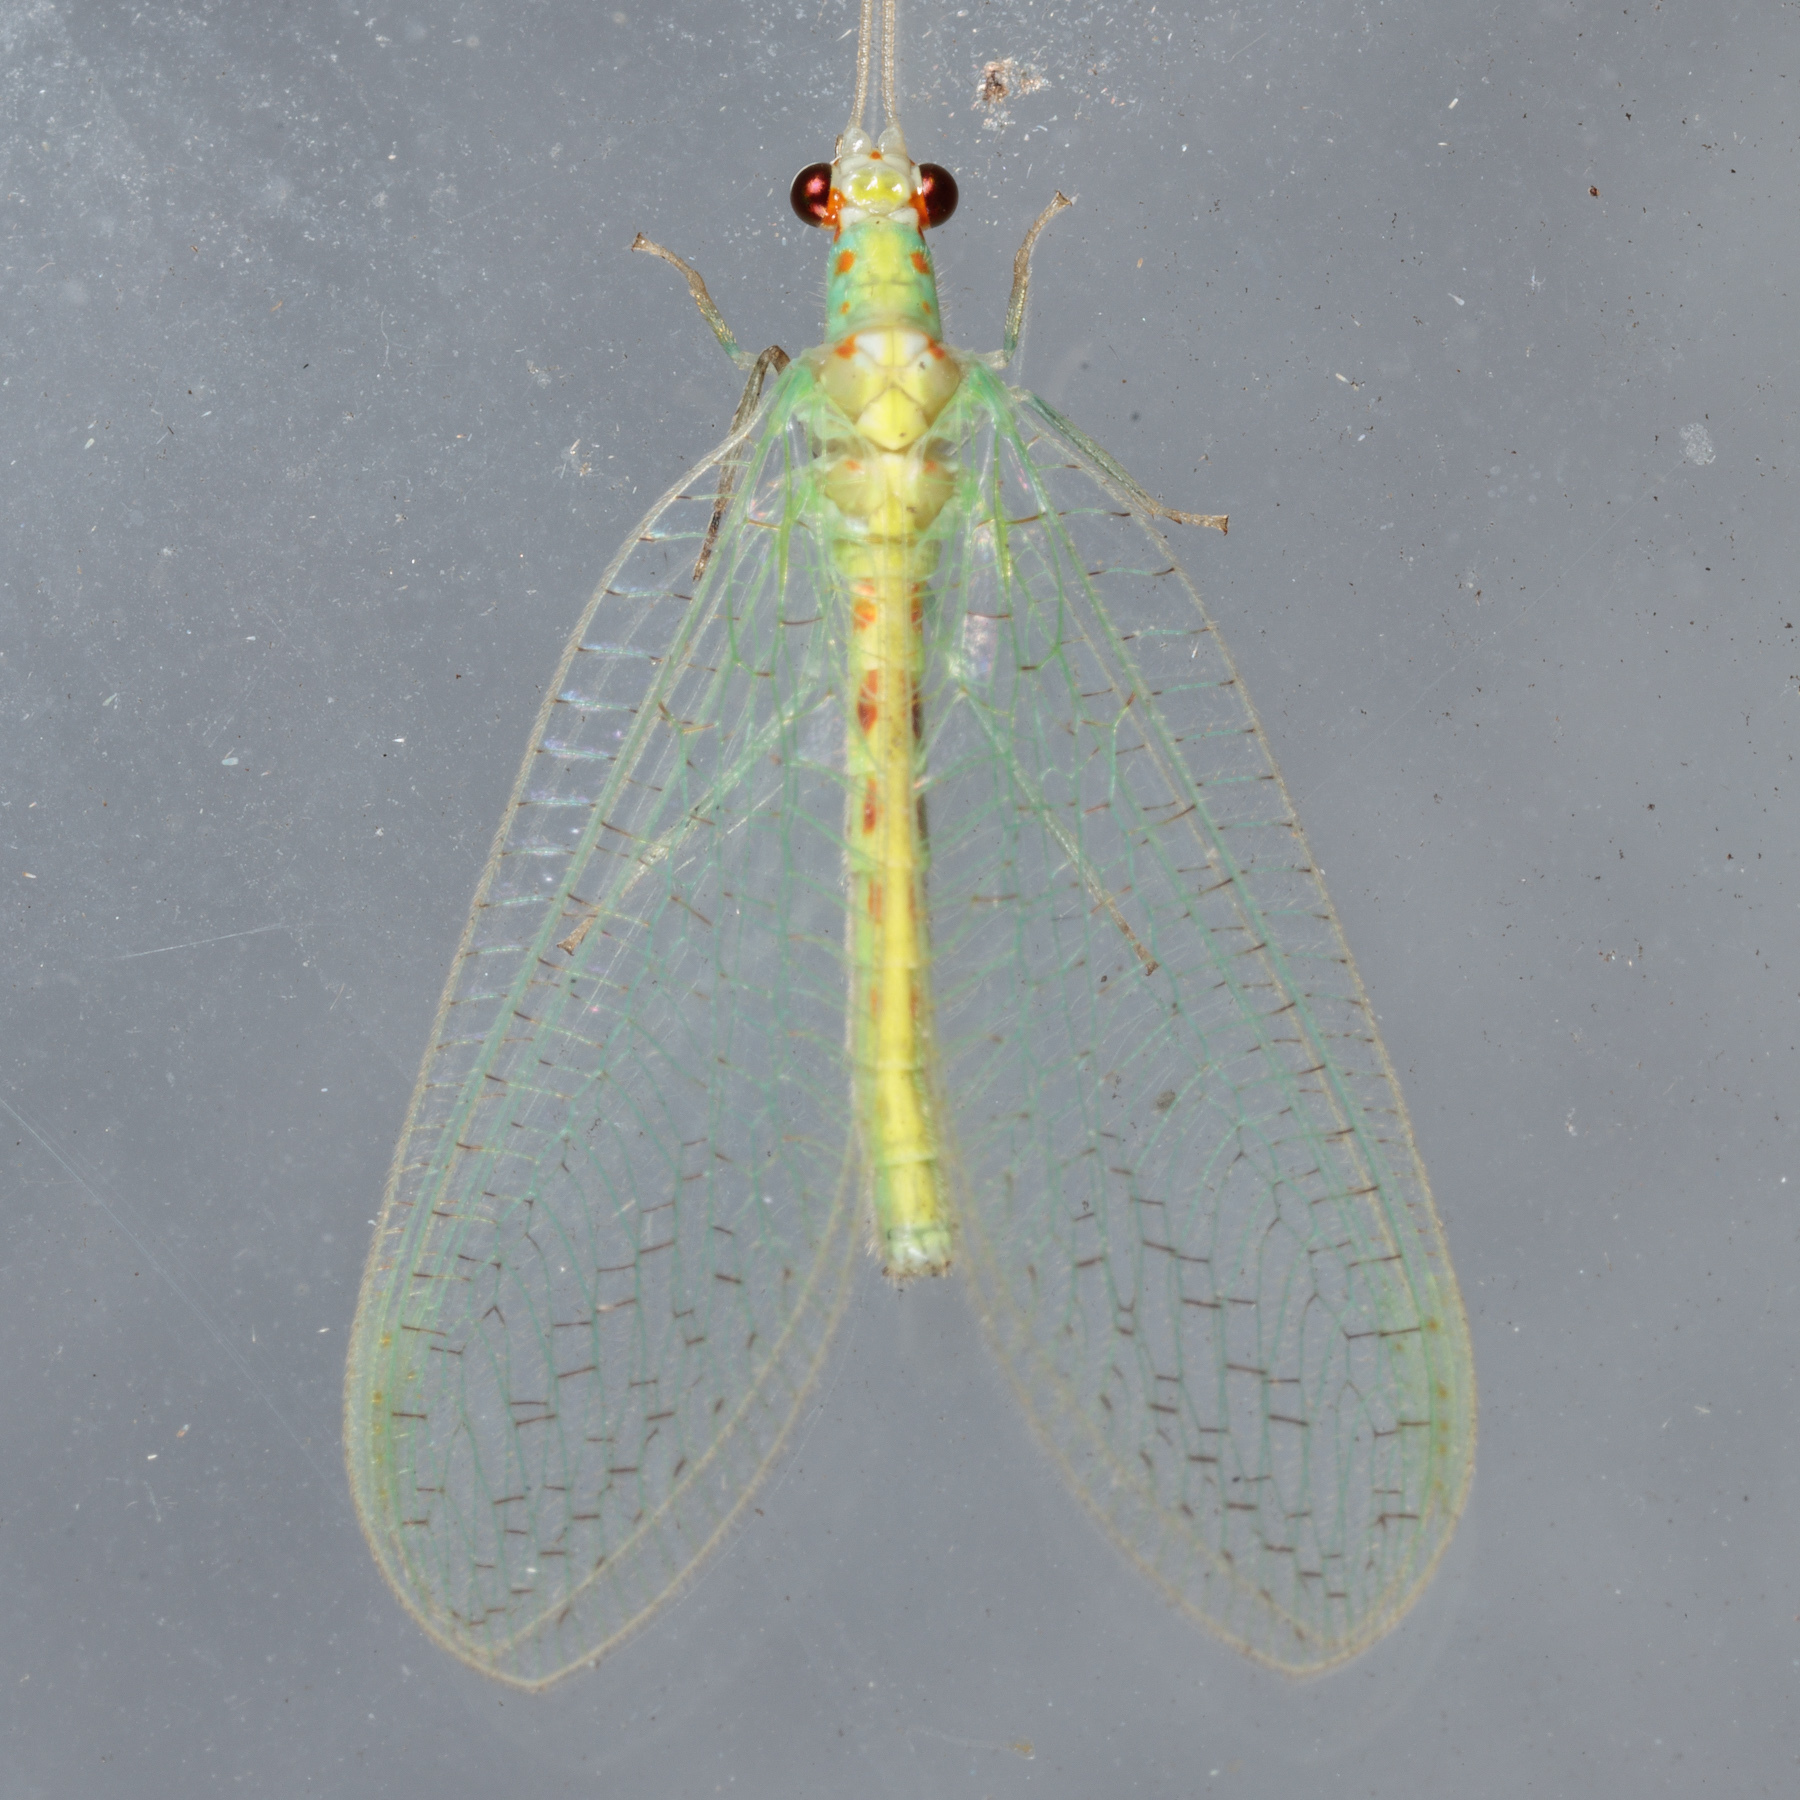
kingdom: Animalia
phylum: Arthropoda
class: Insecta
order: Neuroptera
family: Chrysopidae
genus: Chrysopa
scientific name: Chrysopa quadripunctata
